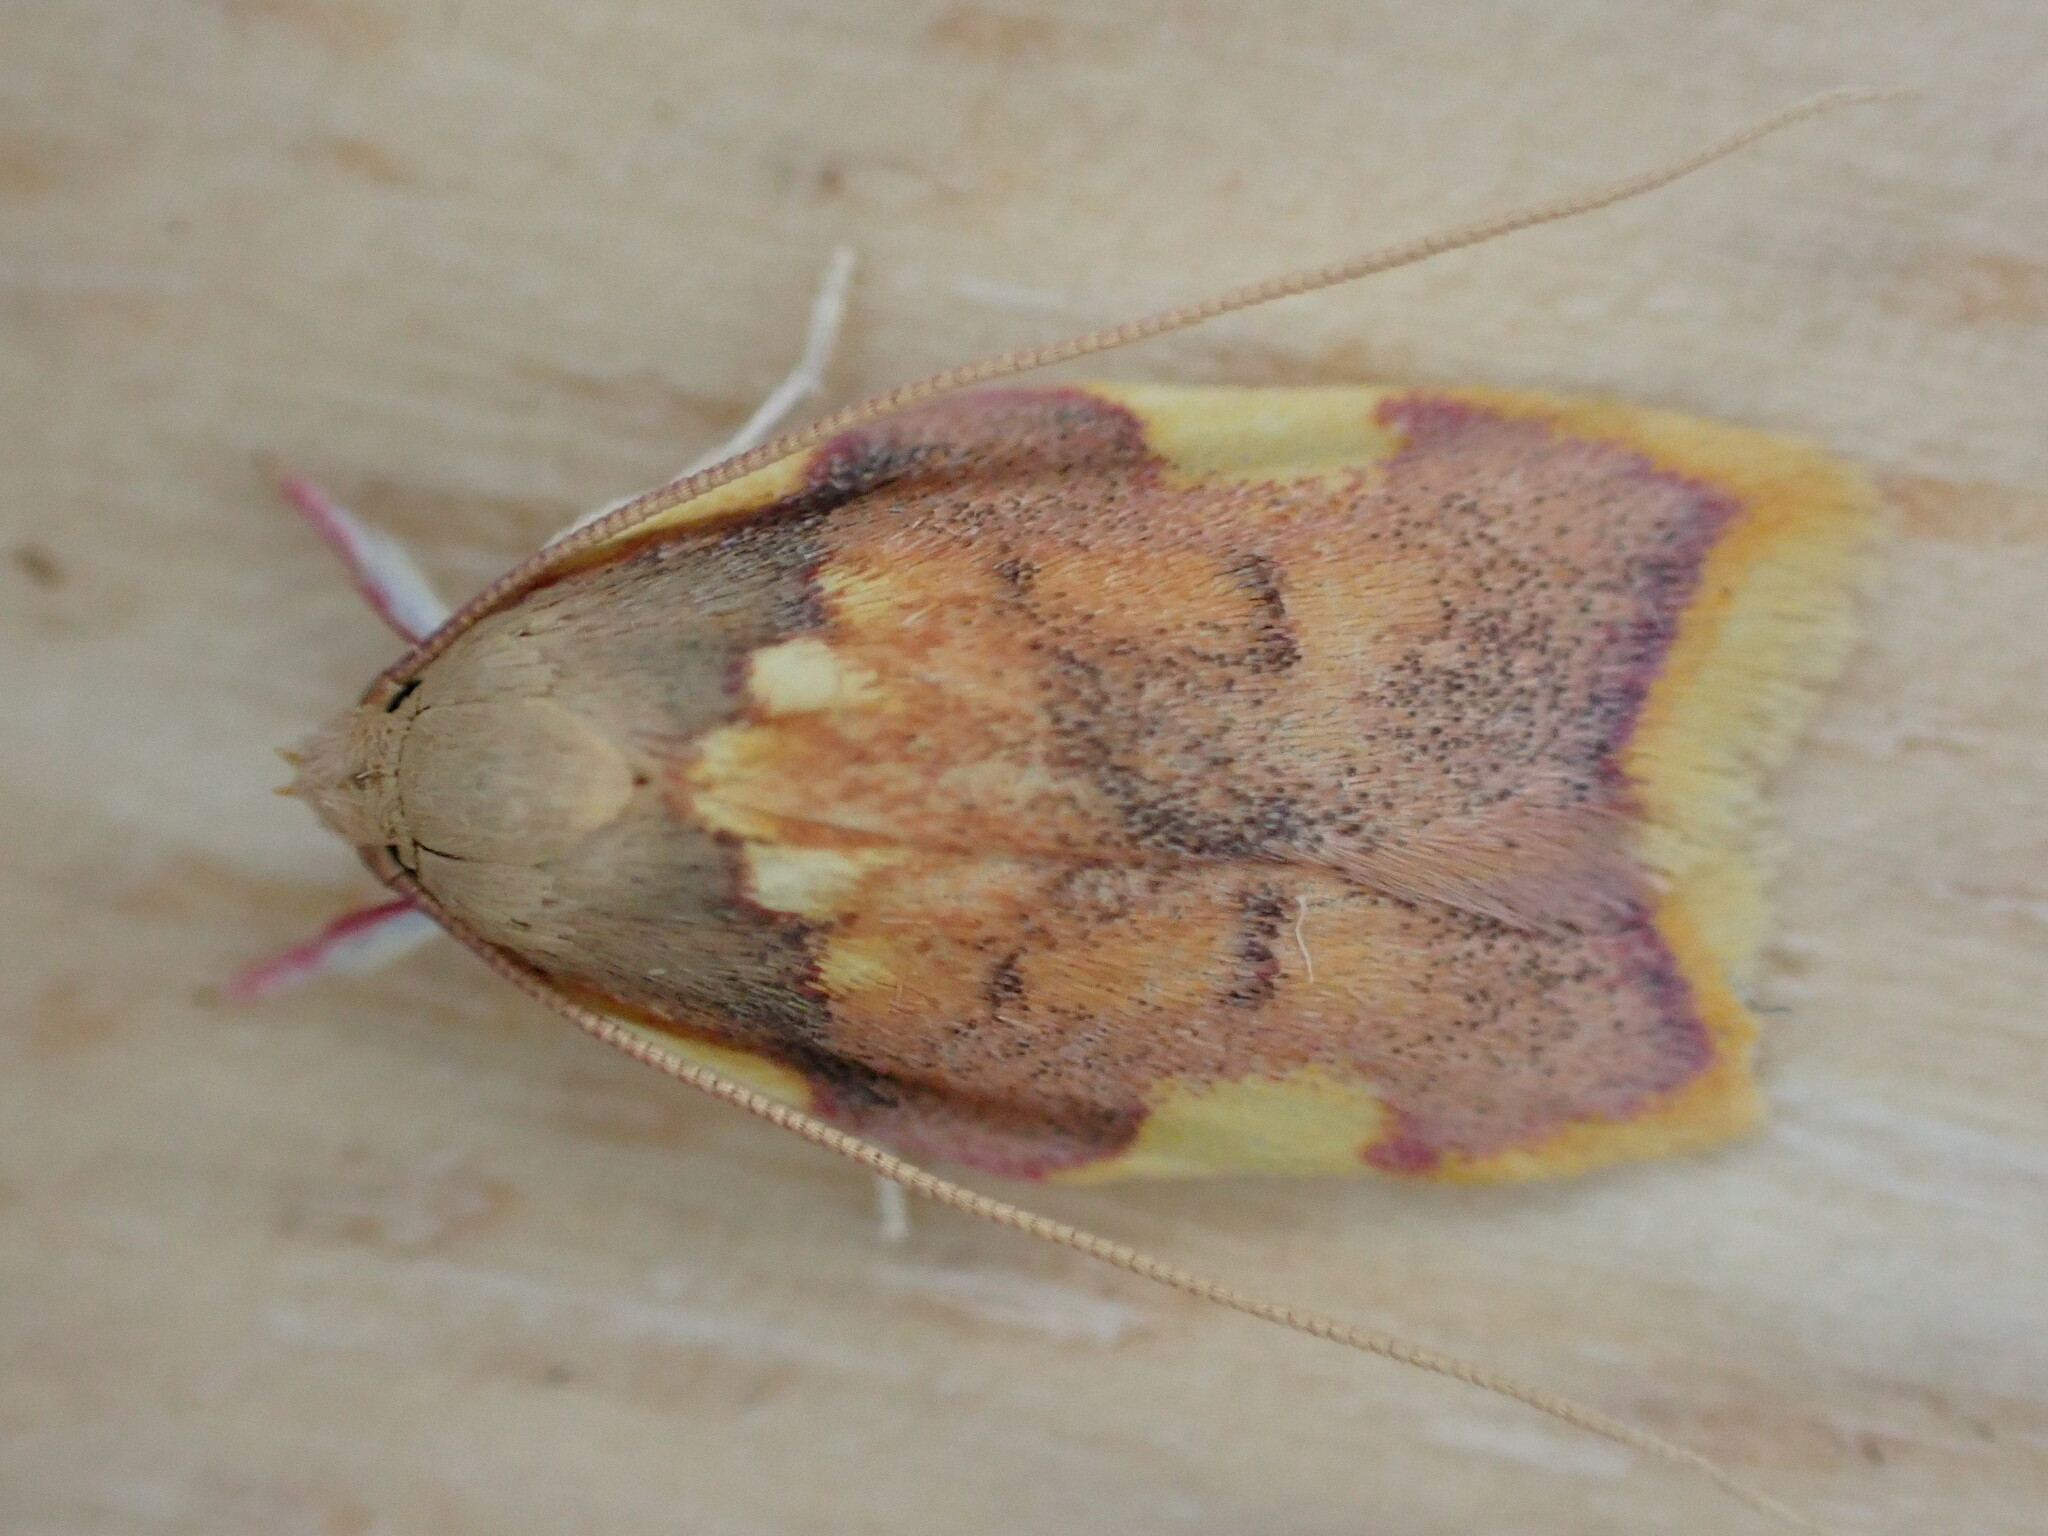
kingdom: Animalia
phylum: Arthropoda
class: Insecta
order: Lepidoptera
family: Peleopodidae
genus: Carcina
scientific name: Carcina quercana
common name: Moth
